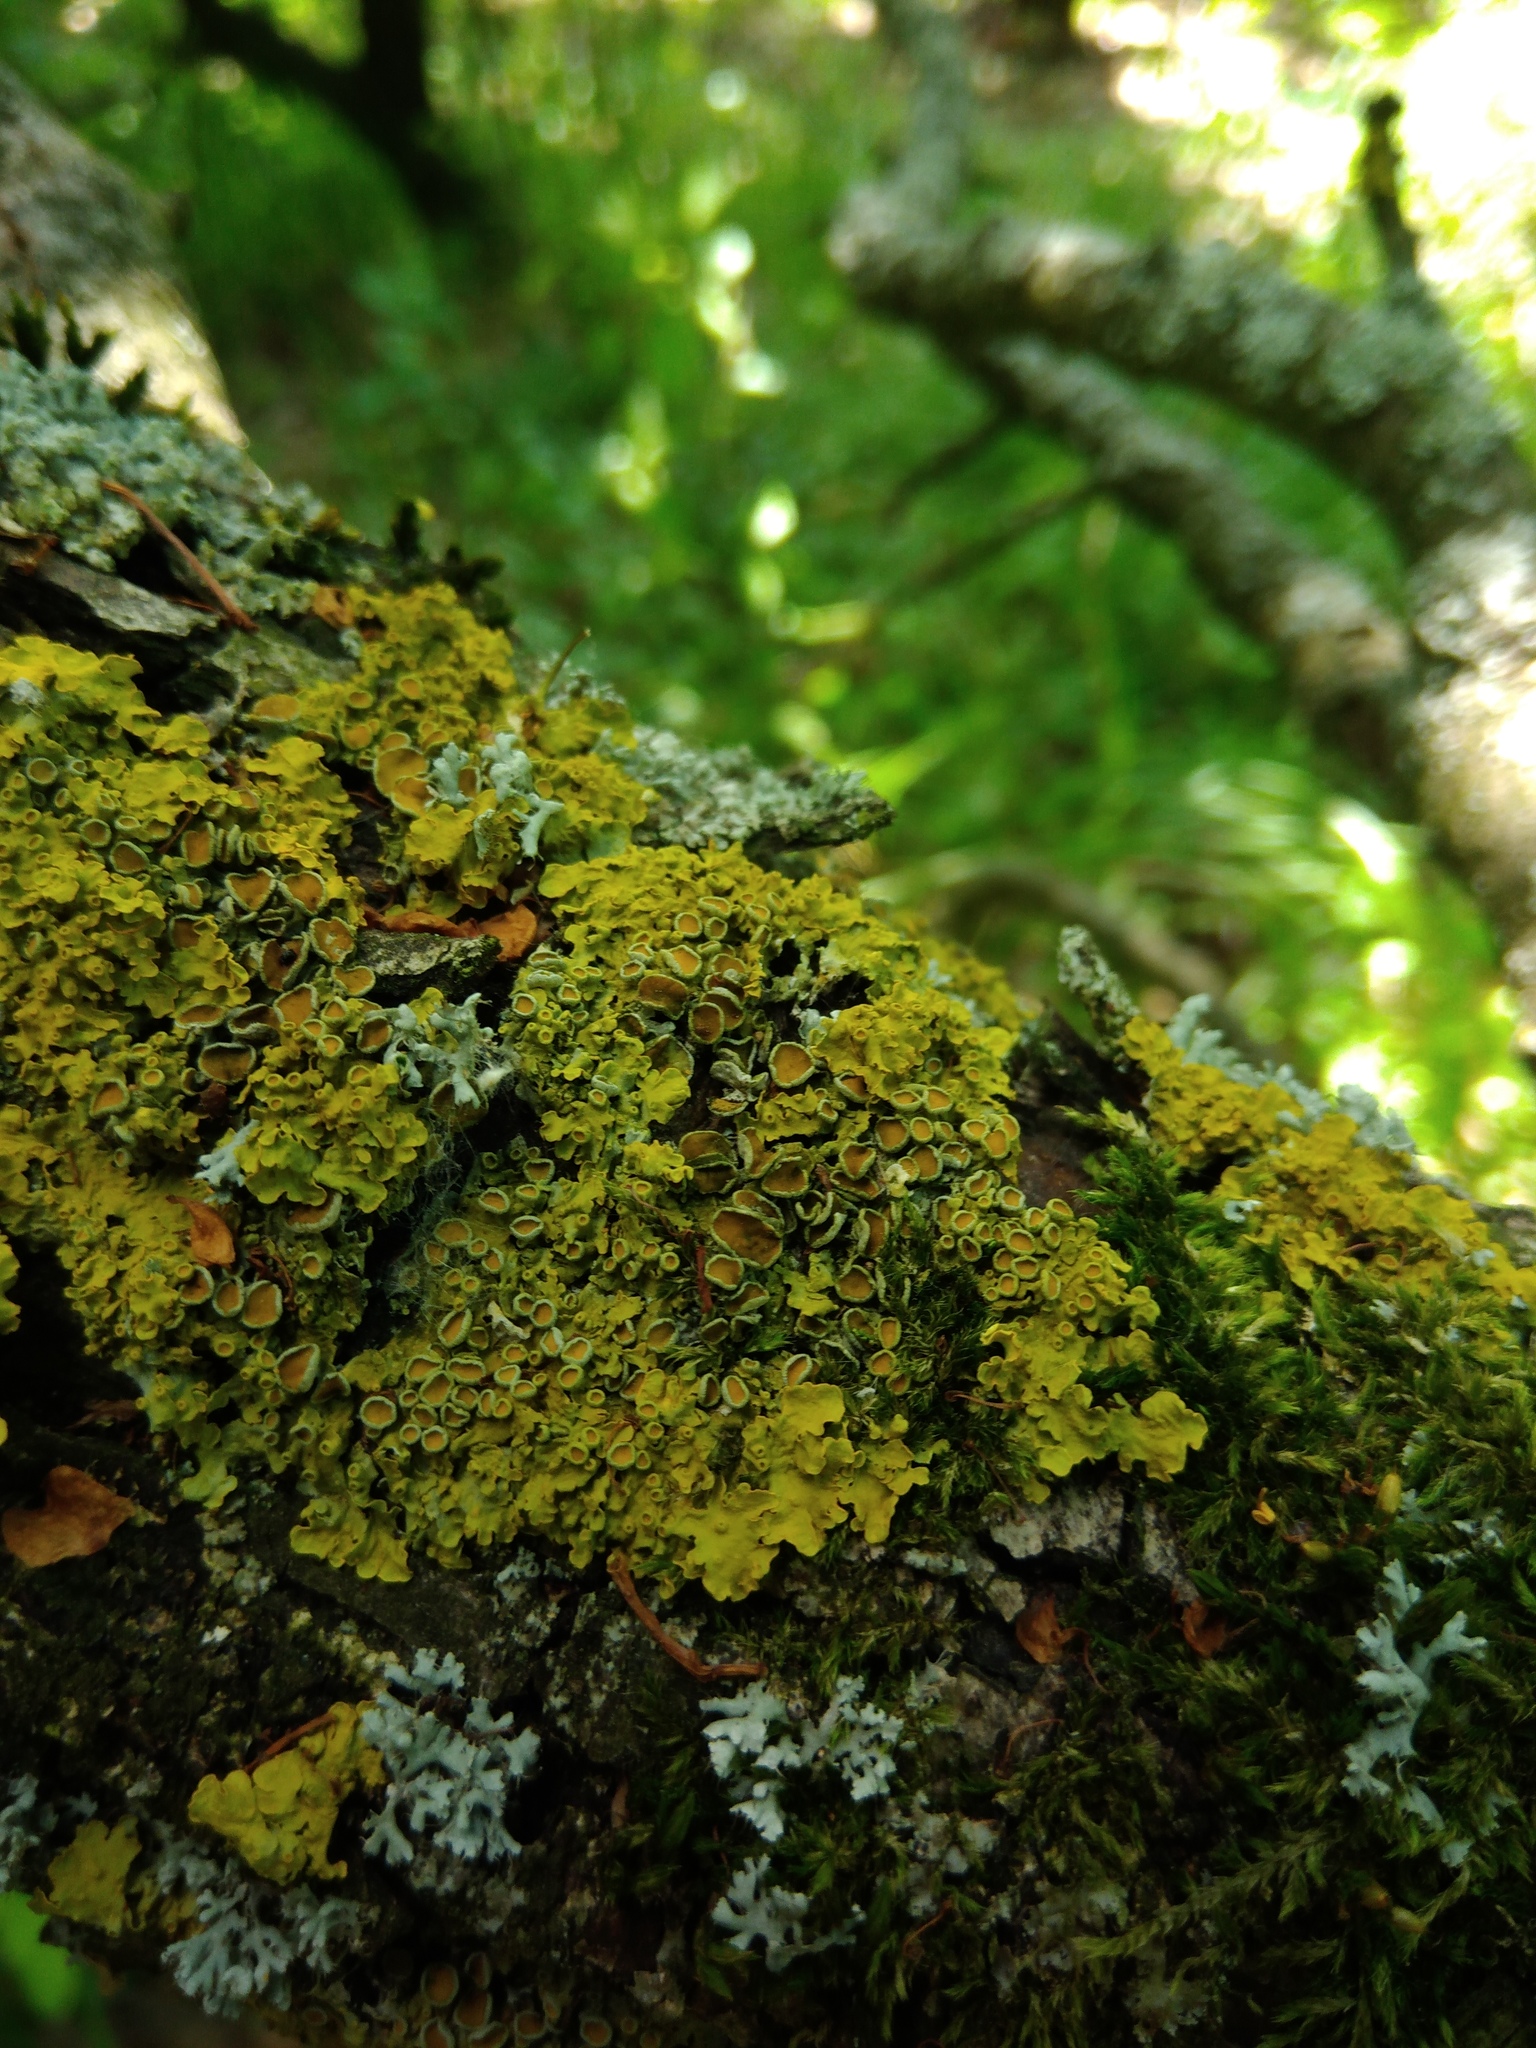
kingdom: Fungi
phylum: Ascomycota
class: Lecanoromycetes
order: Teloschistales
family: Teloschistaceae
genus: Xanthoria
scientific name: Xanthoria parietina
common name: Common orange lichen
